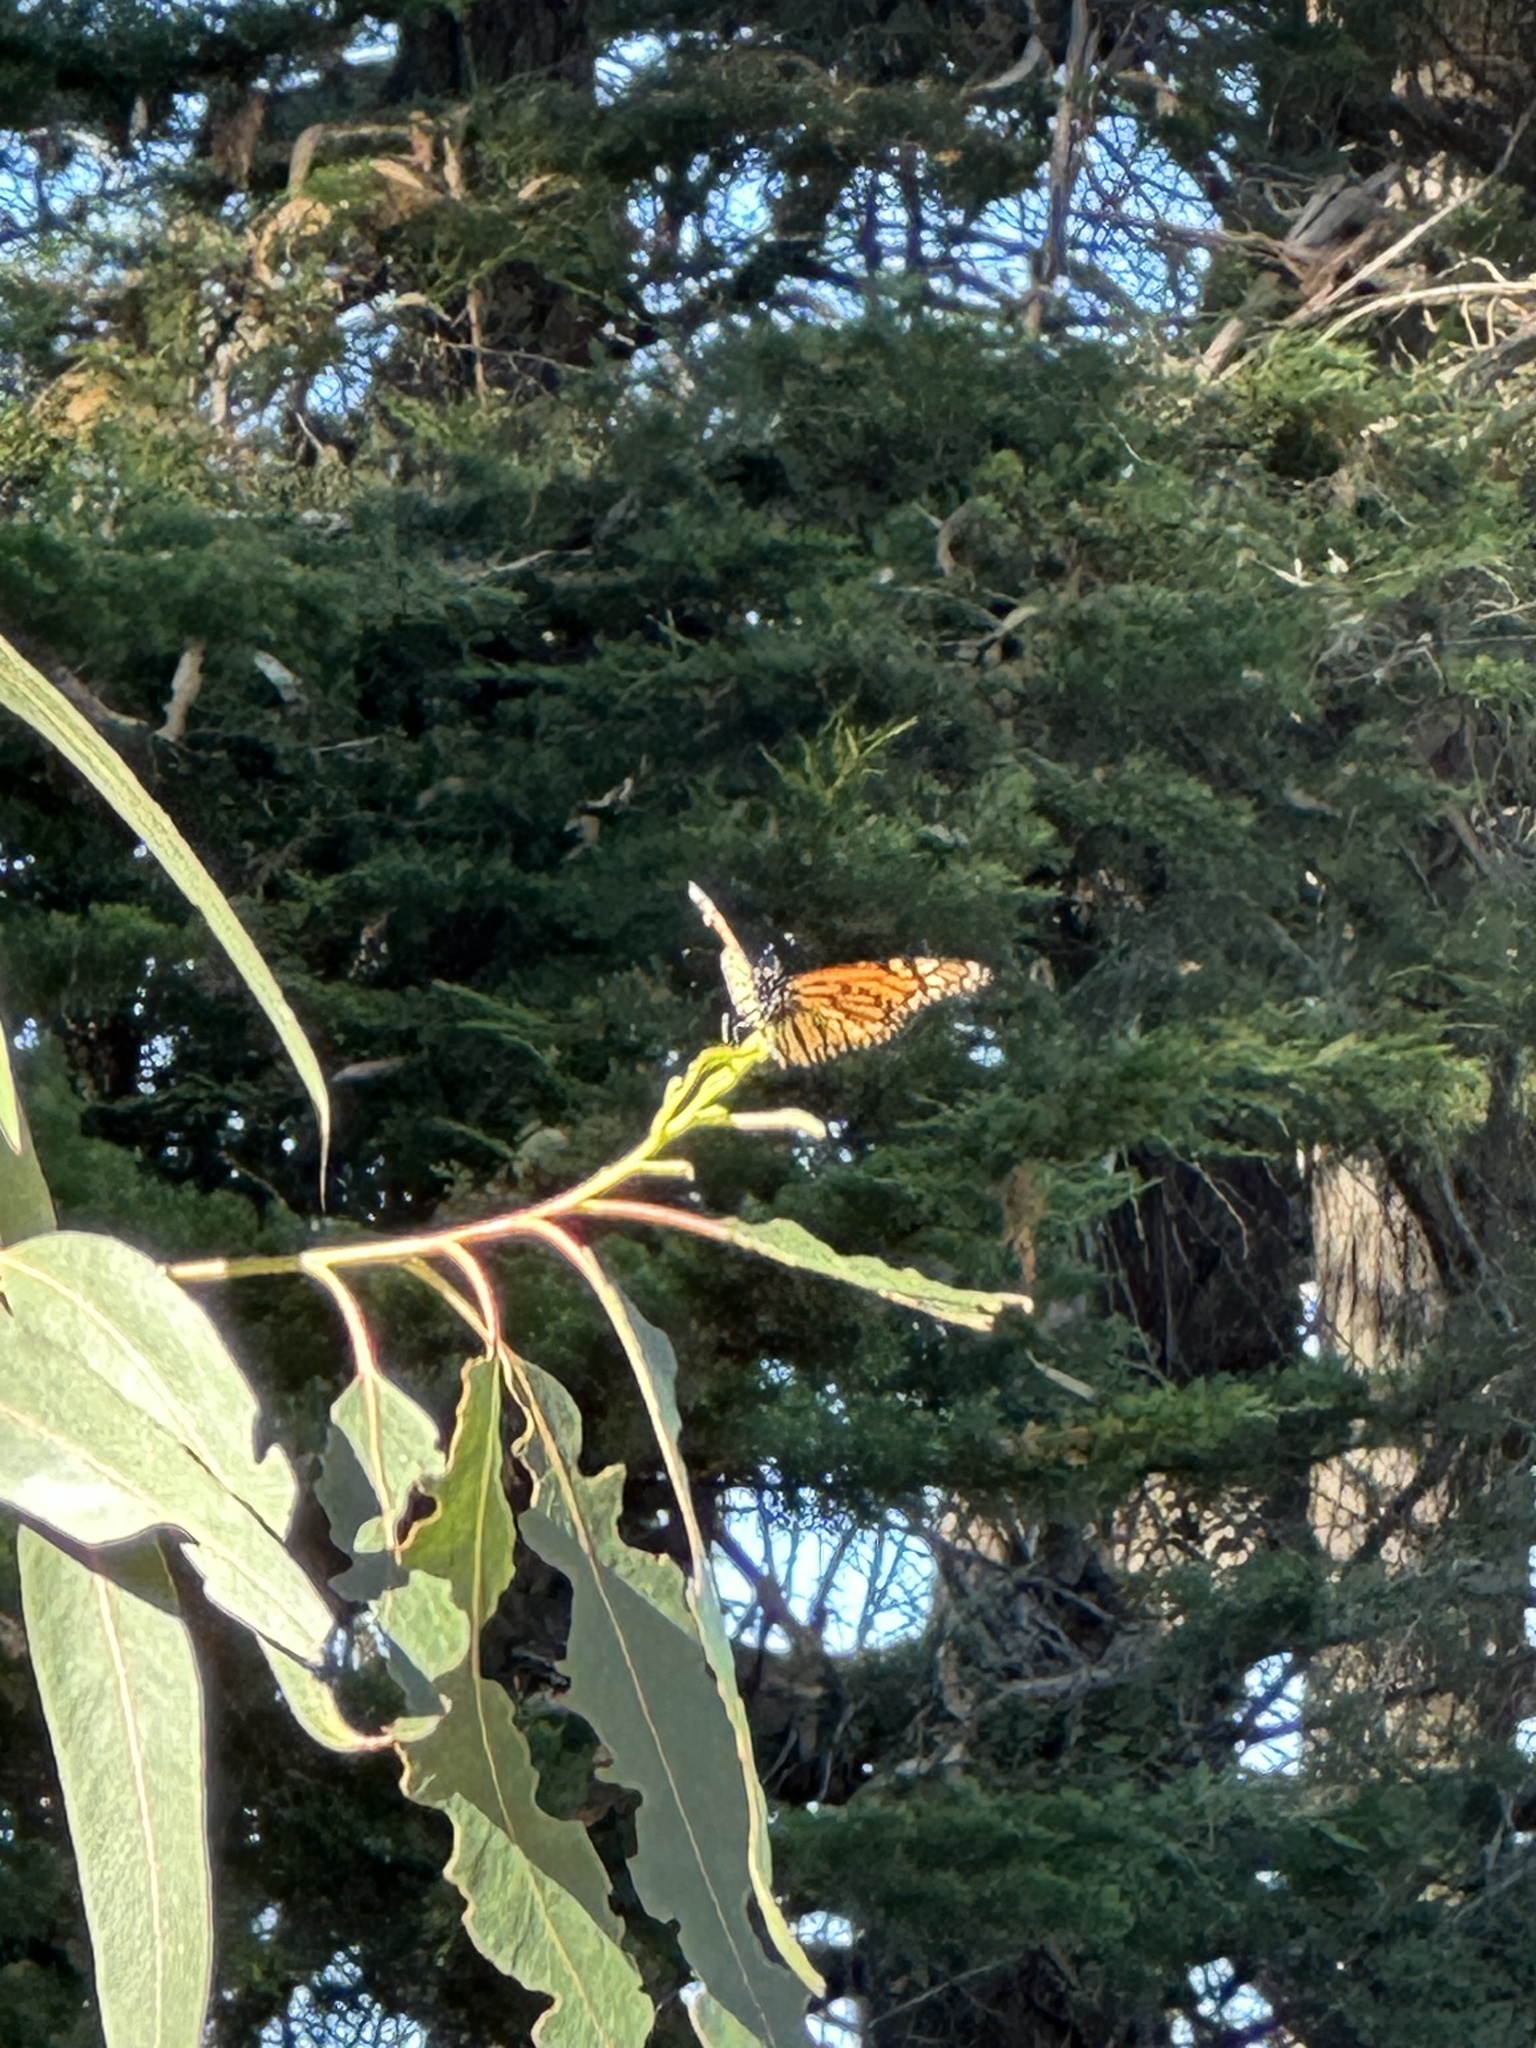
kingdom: Animalia
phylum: Arthropoda
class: Insecta
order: Lepidoptera
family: Nymphalidae
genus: Danaus
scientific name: Danaus plexippus
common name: Monarch
